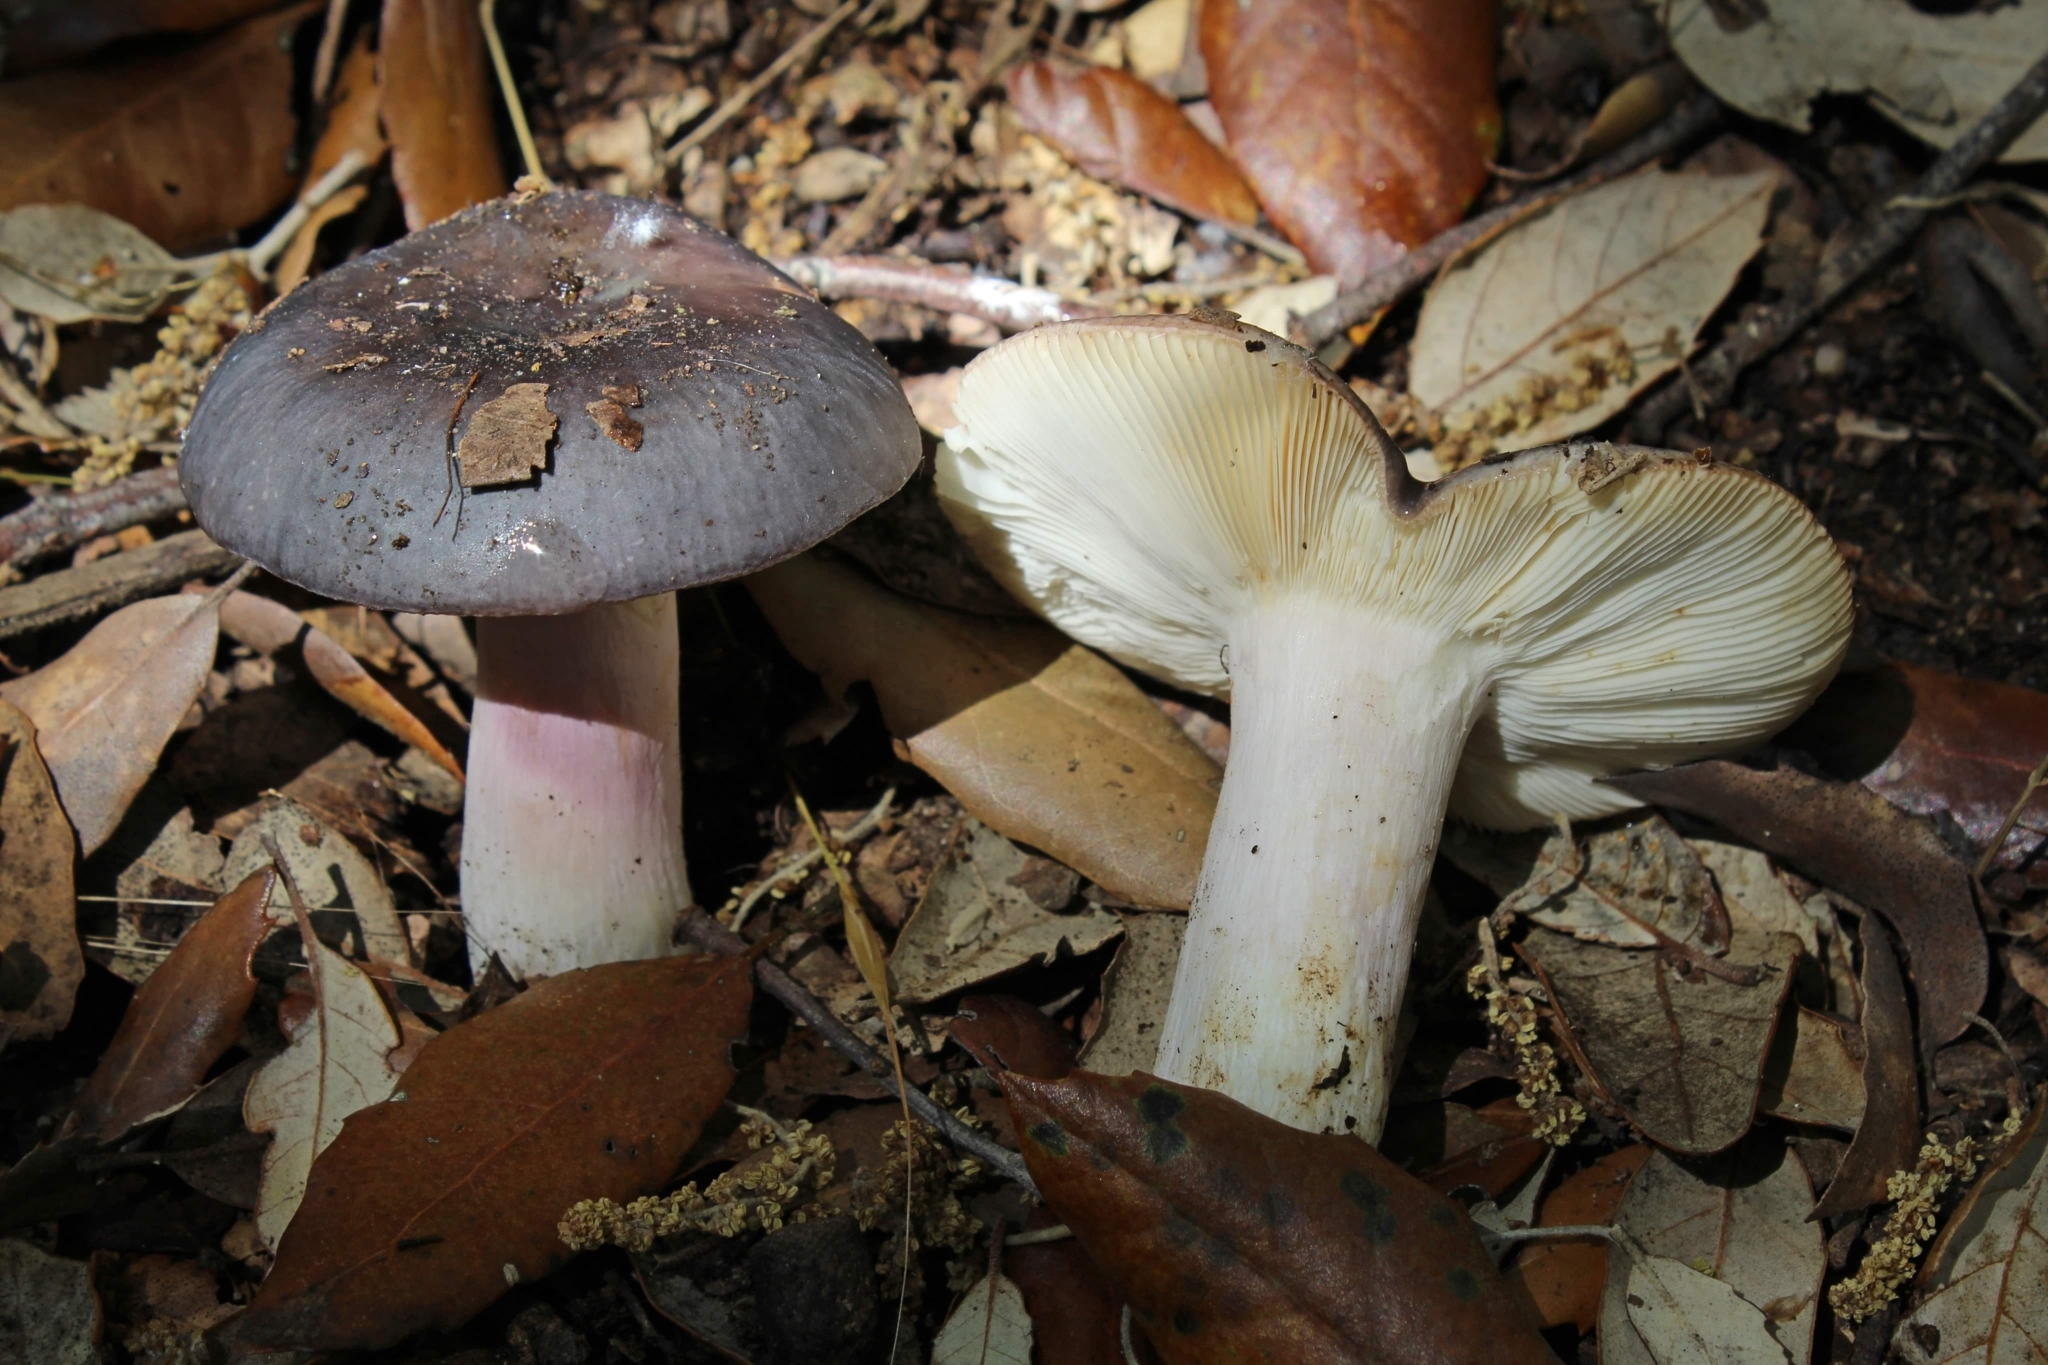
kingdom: Fungi
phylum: Basidiomycota
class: Agaricomycetes
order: Russulales
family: Russulaceae
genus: Russula
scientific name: Russula grisea
